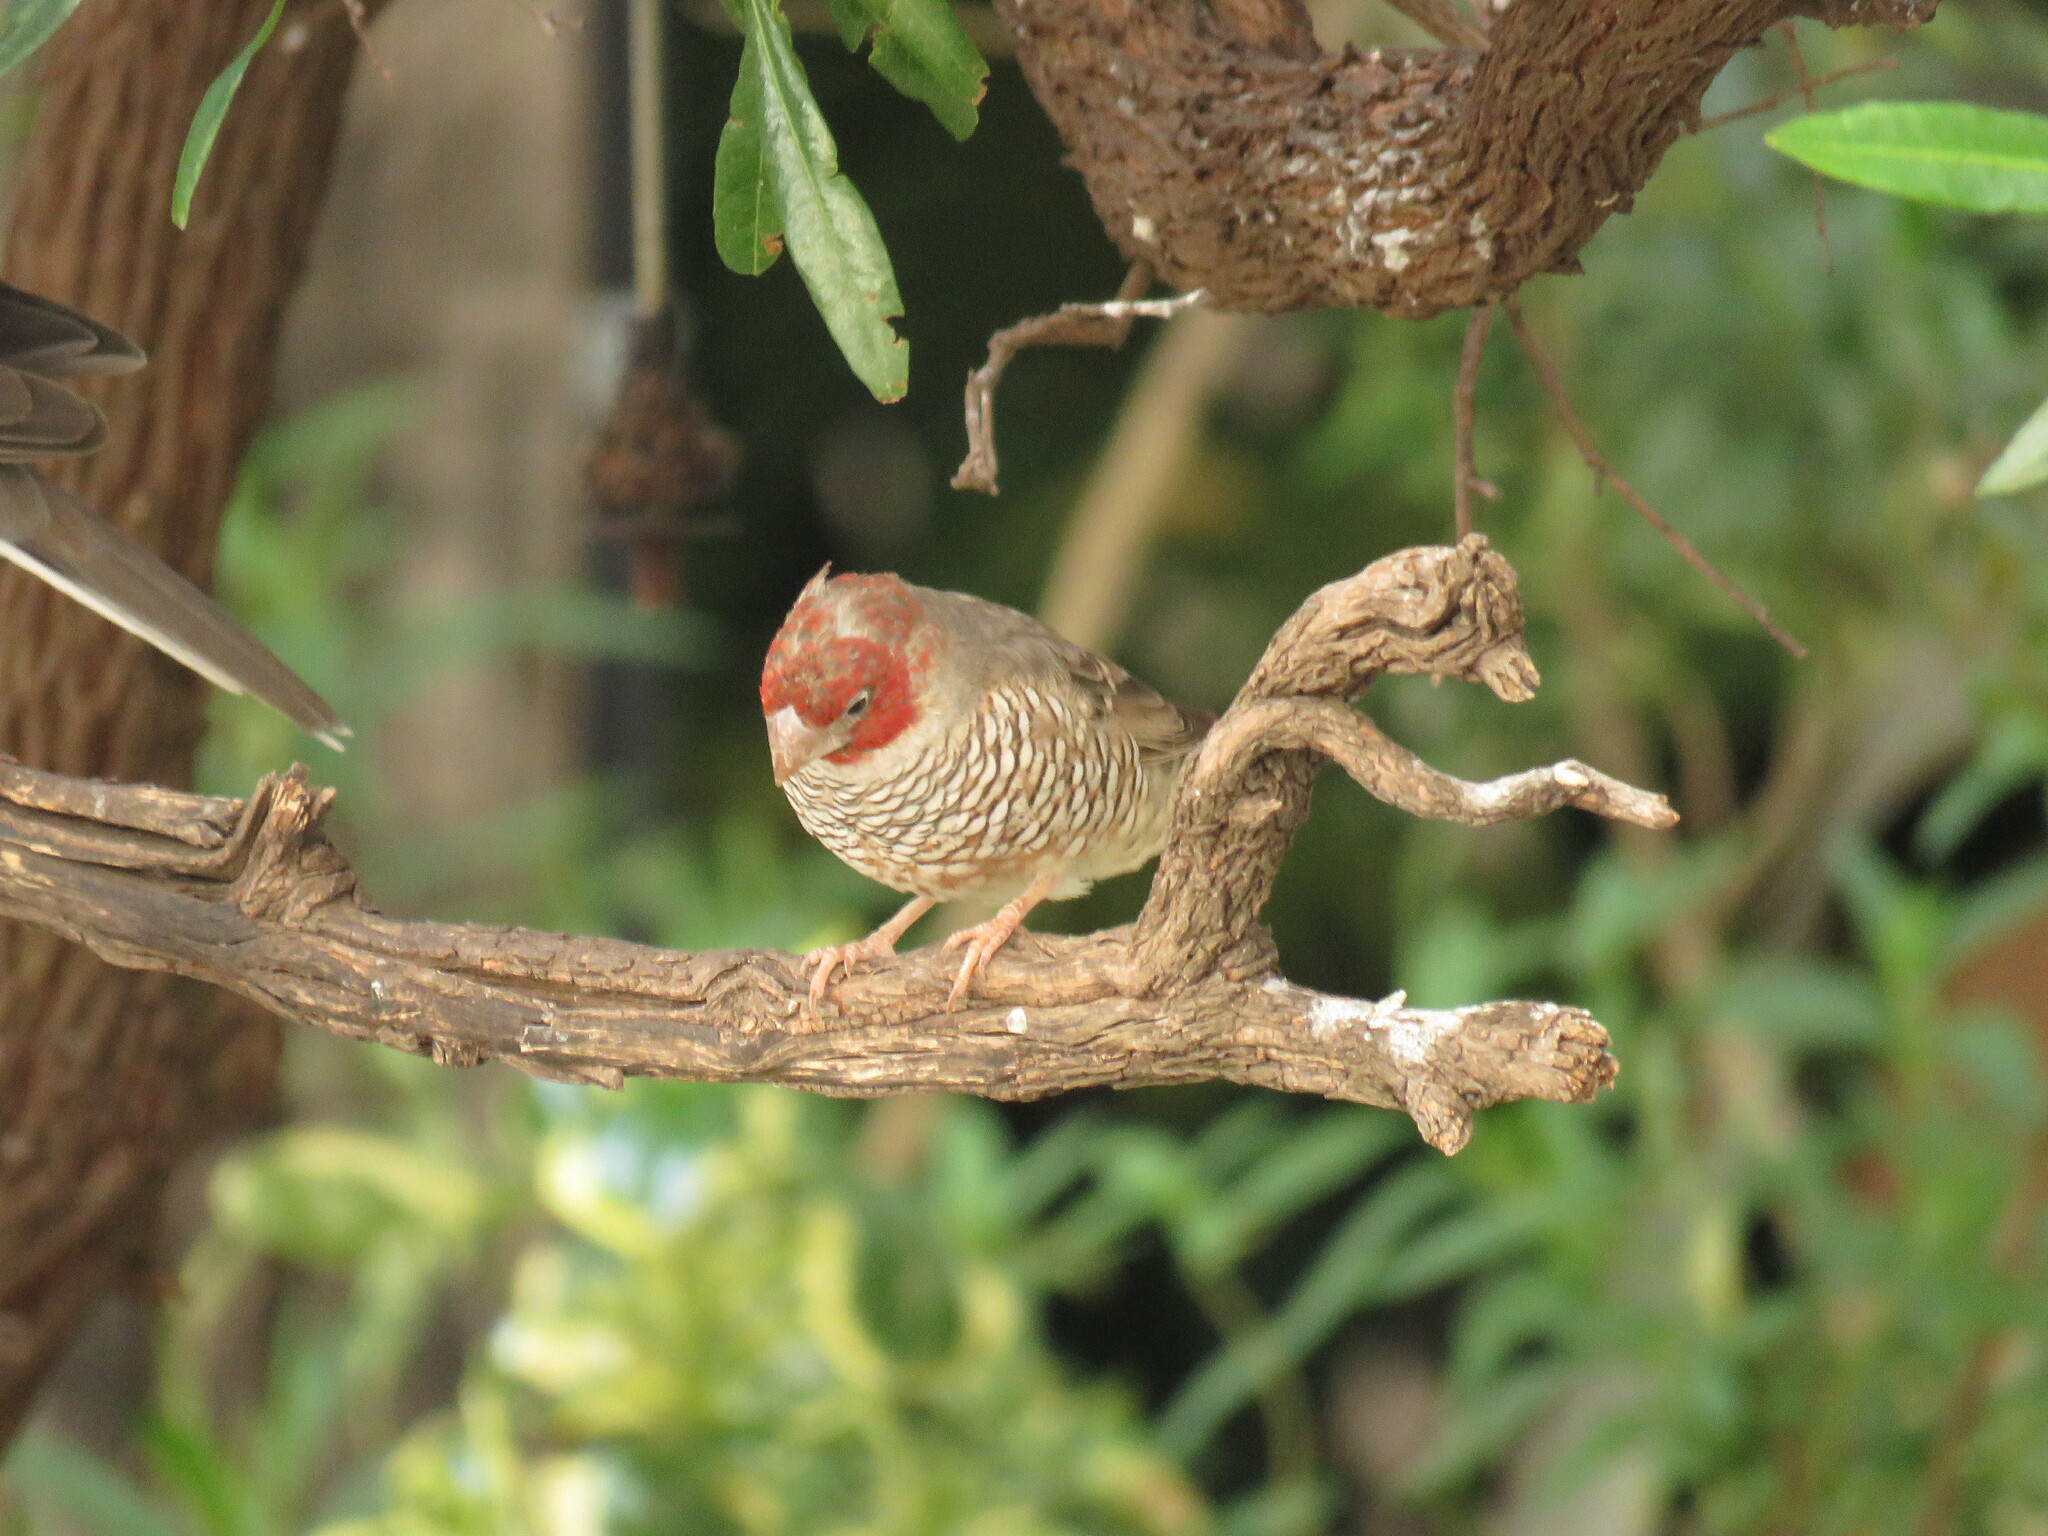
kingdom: Animalia
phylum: Chordata
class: Aves
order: Passeriformes
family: Estrildidae
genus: Amadina
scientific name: Amadina erythrocephala
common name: Red-headed finch
